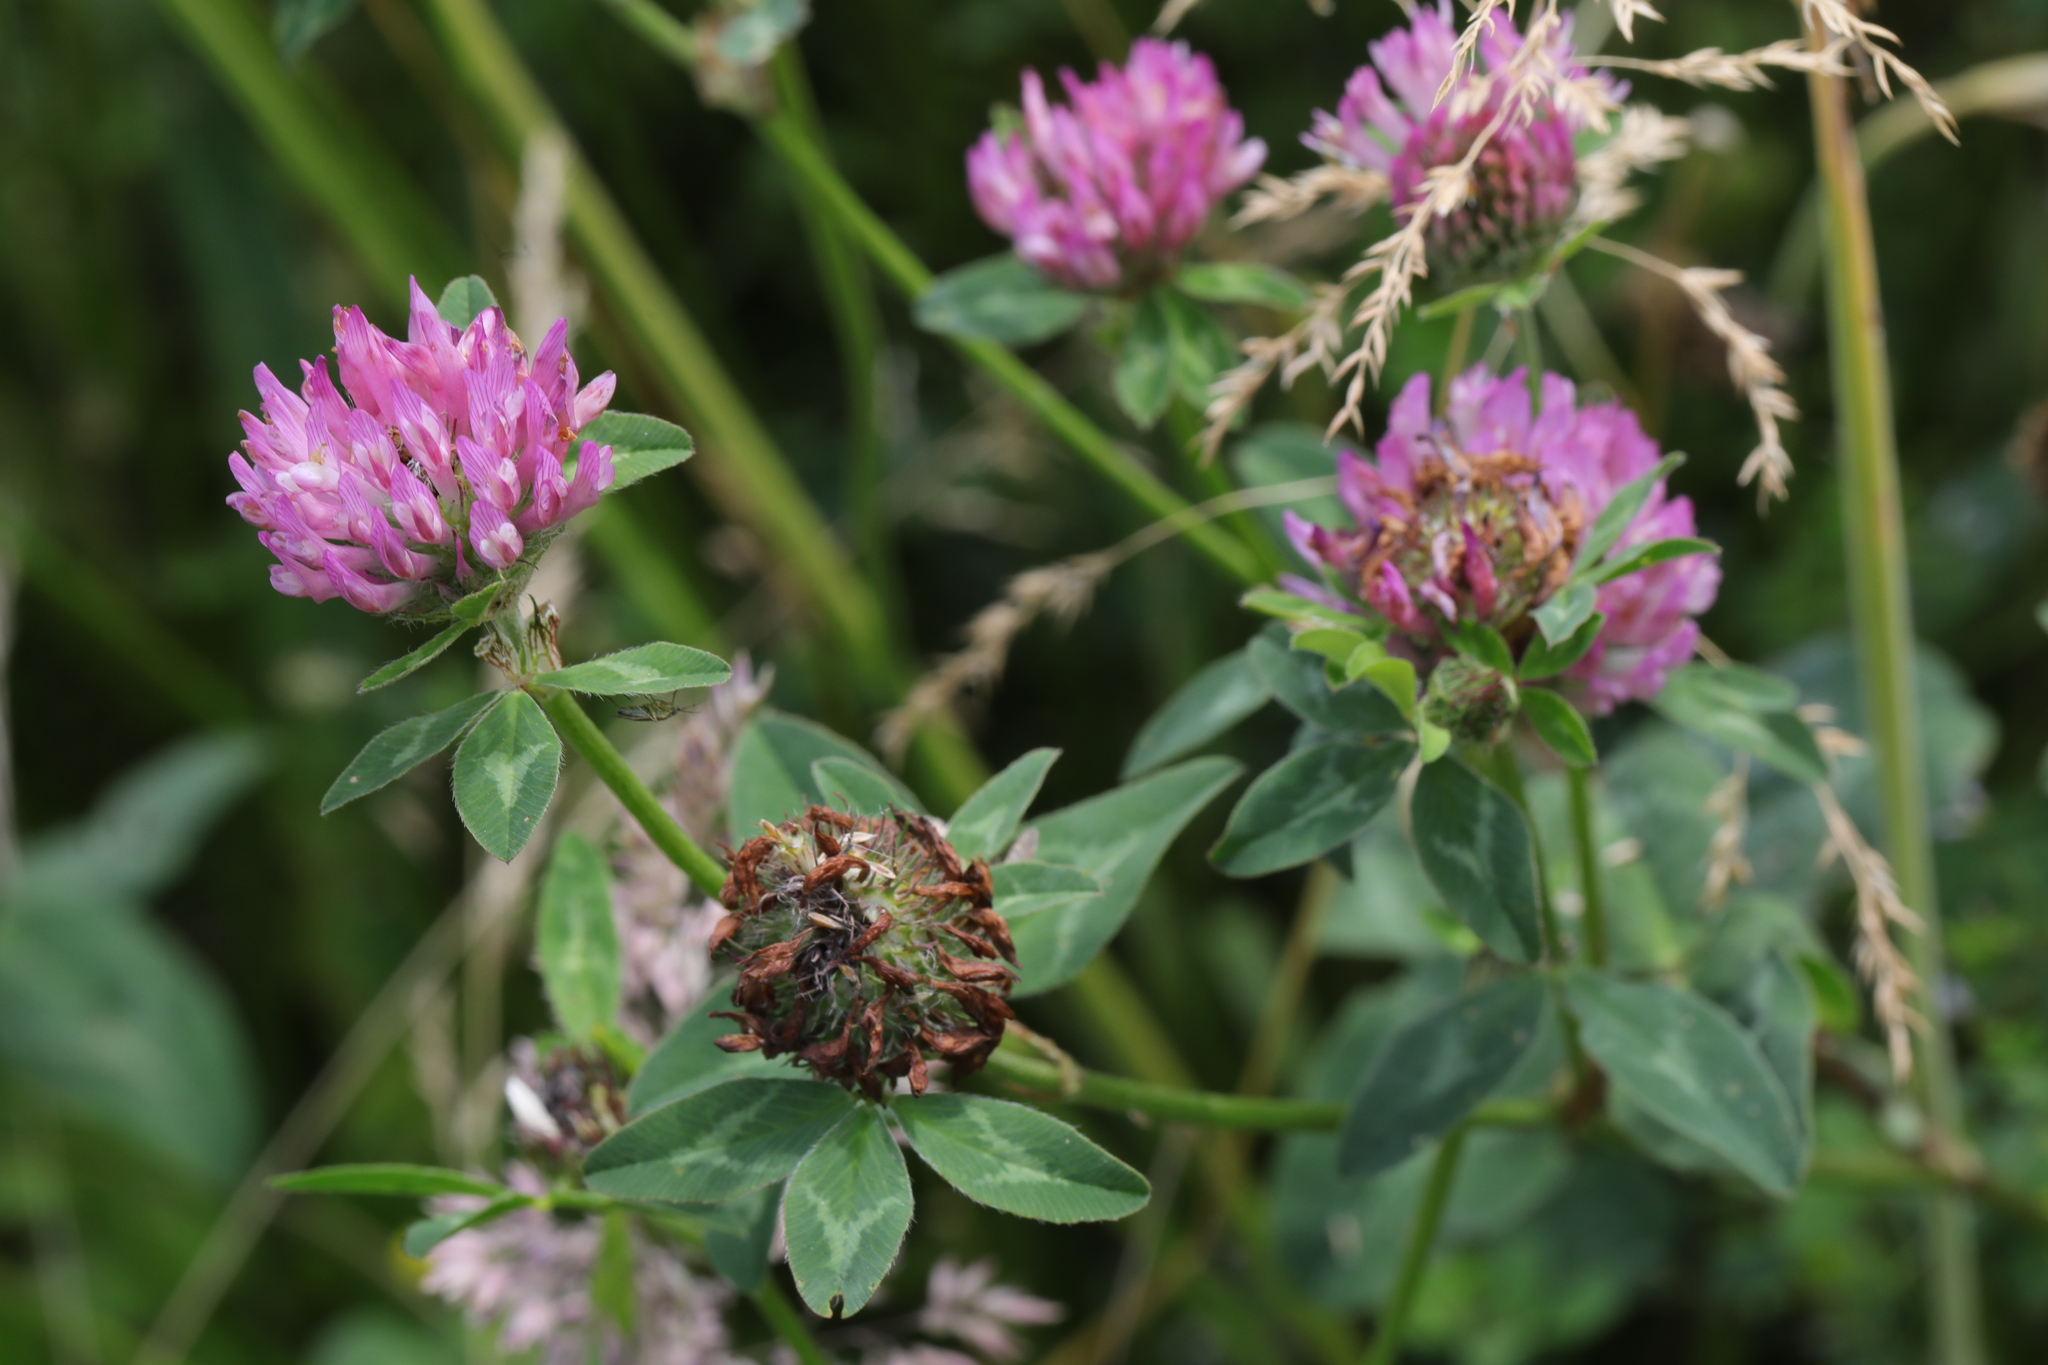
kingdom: Plantae
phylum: Tracheophyta
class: Magnoliopsida
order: Fabales
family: Fabaceae
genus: Trifolium
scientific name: Trifolium pratense
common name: Red clover
